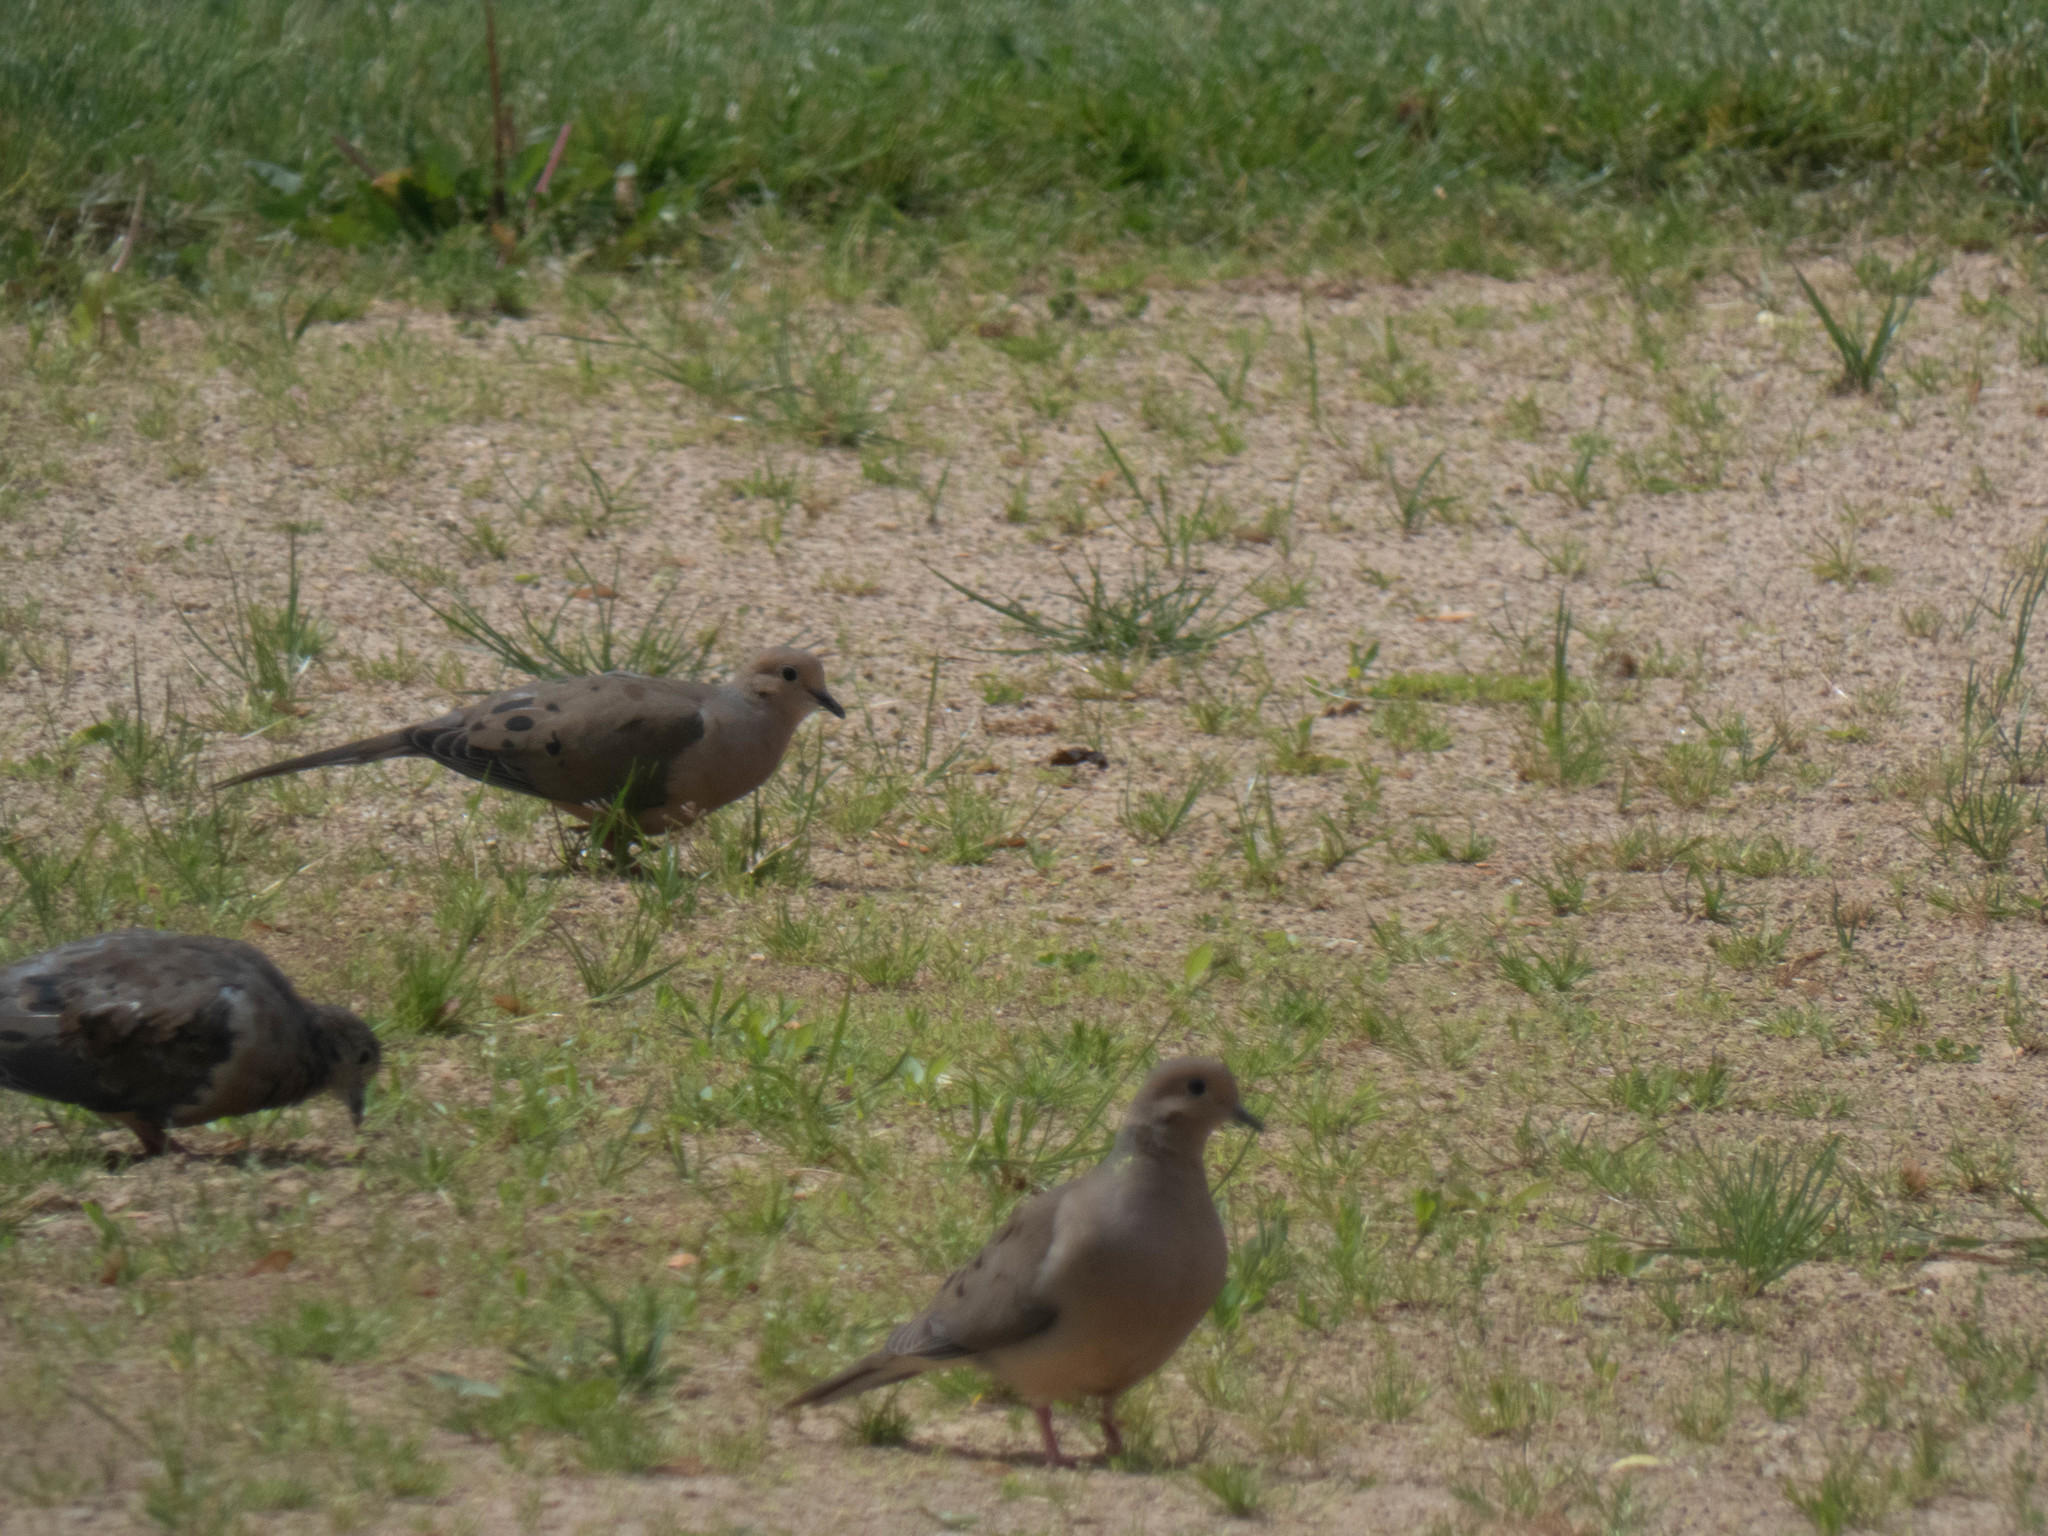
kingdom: Animalia
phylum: Chordata
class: Aves
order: Columbiformes
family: Columbidae
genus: Zenaida
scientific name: Zenaida macroura
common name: Mourning dove
